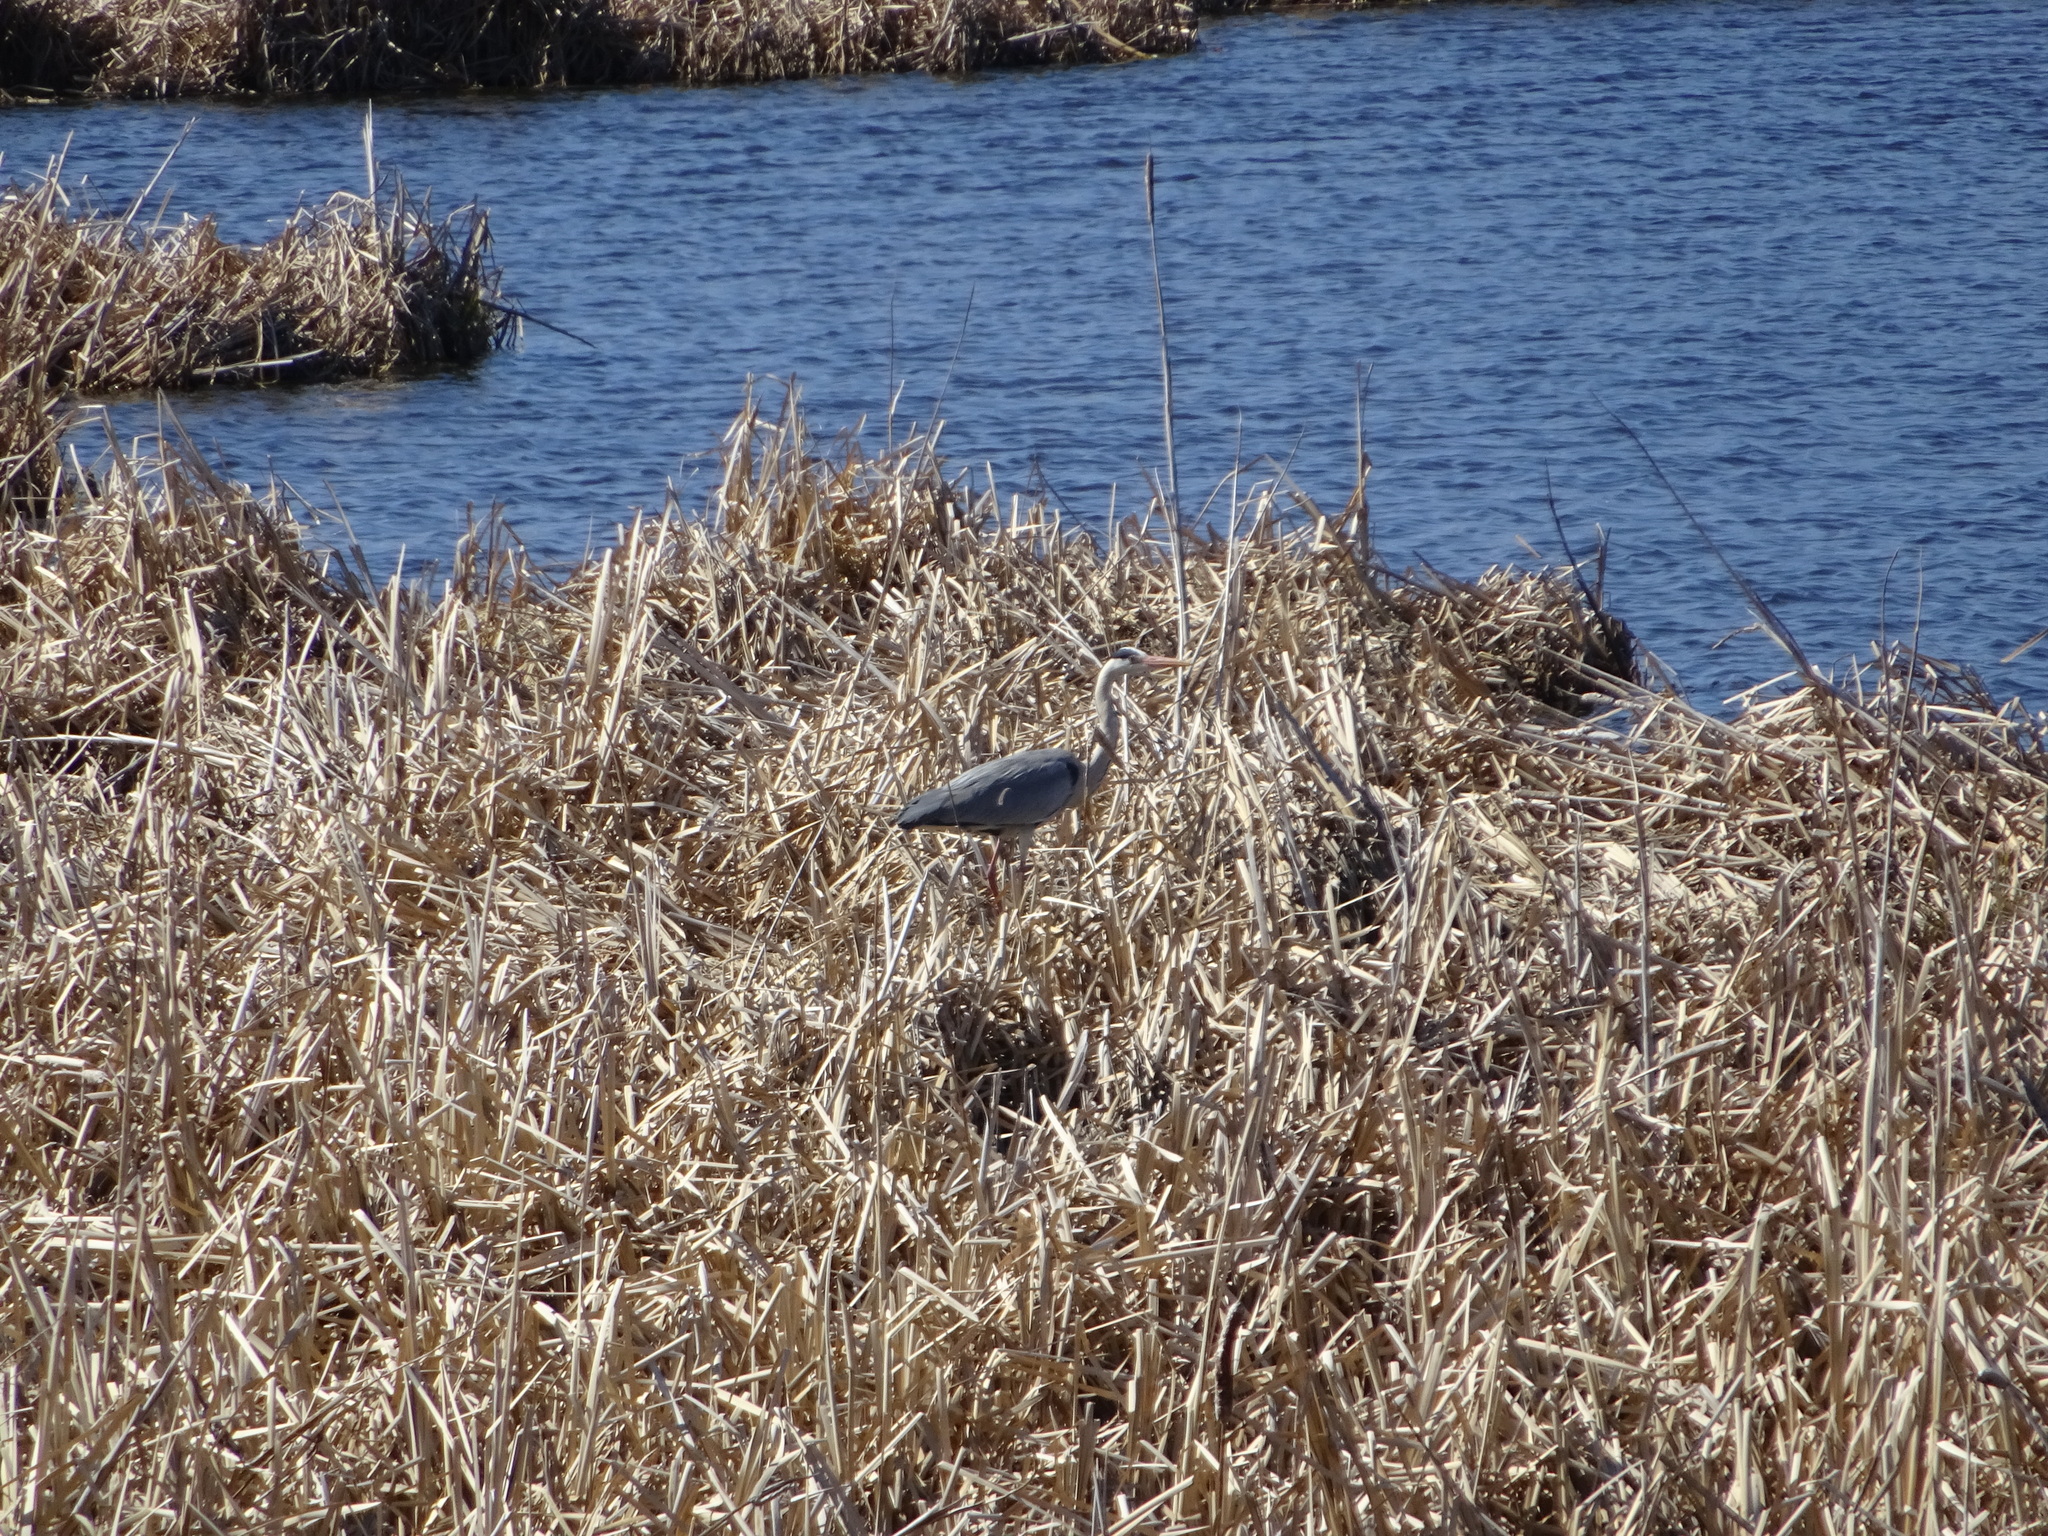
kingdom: Animalia
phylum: Chordata
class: Aves
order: Pelecaniformes
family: Ardeidae
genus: Ardea
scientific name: Ardea cinerea
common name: Grey heron
